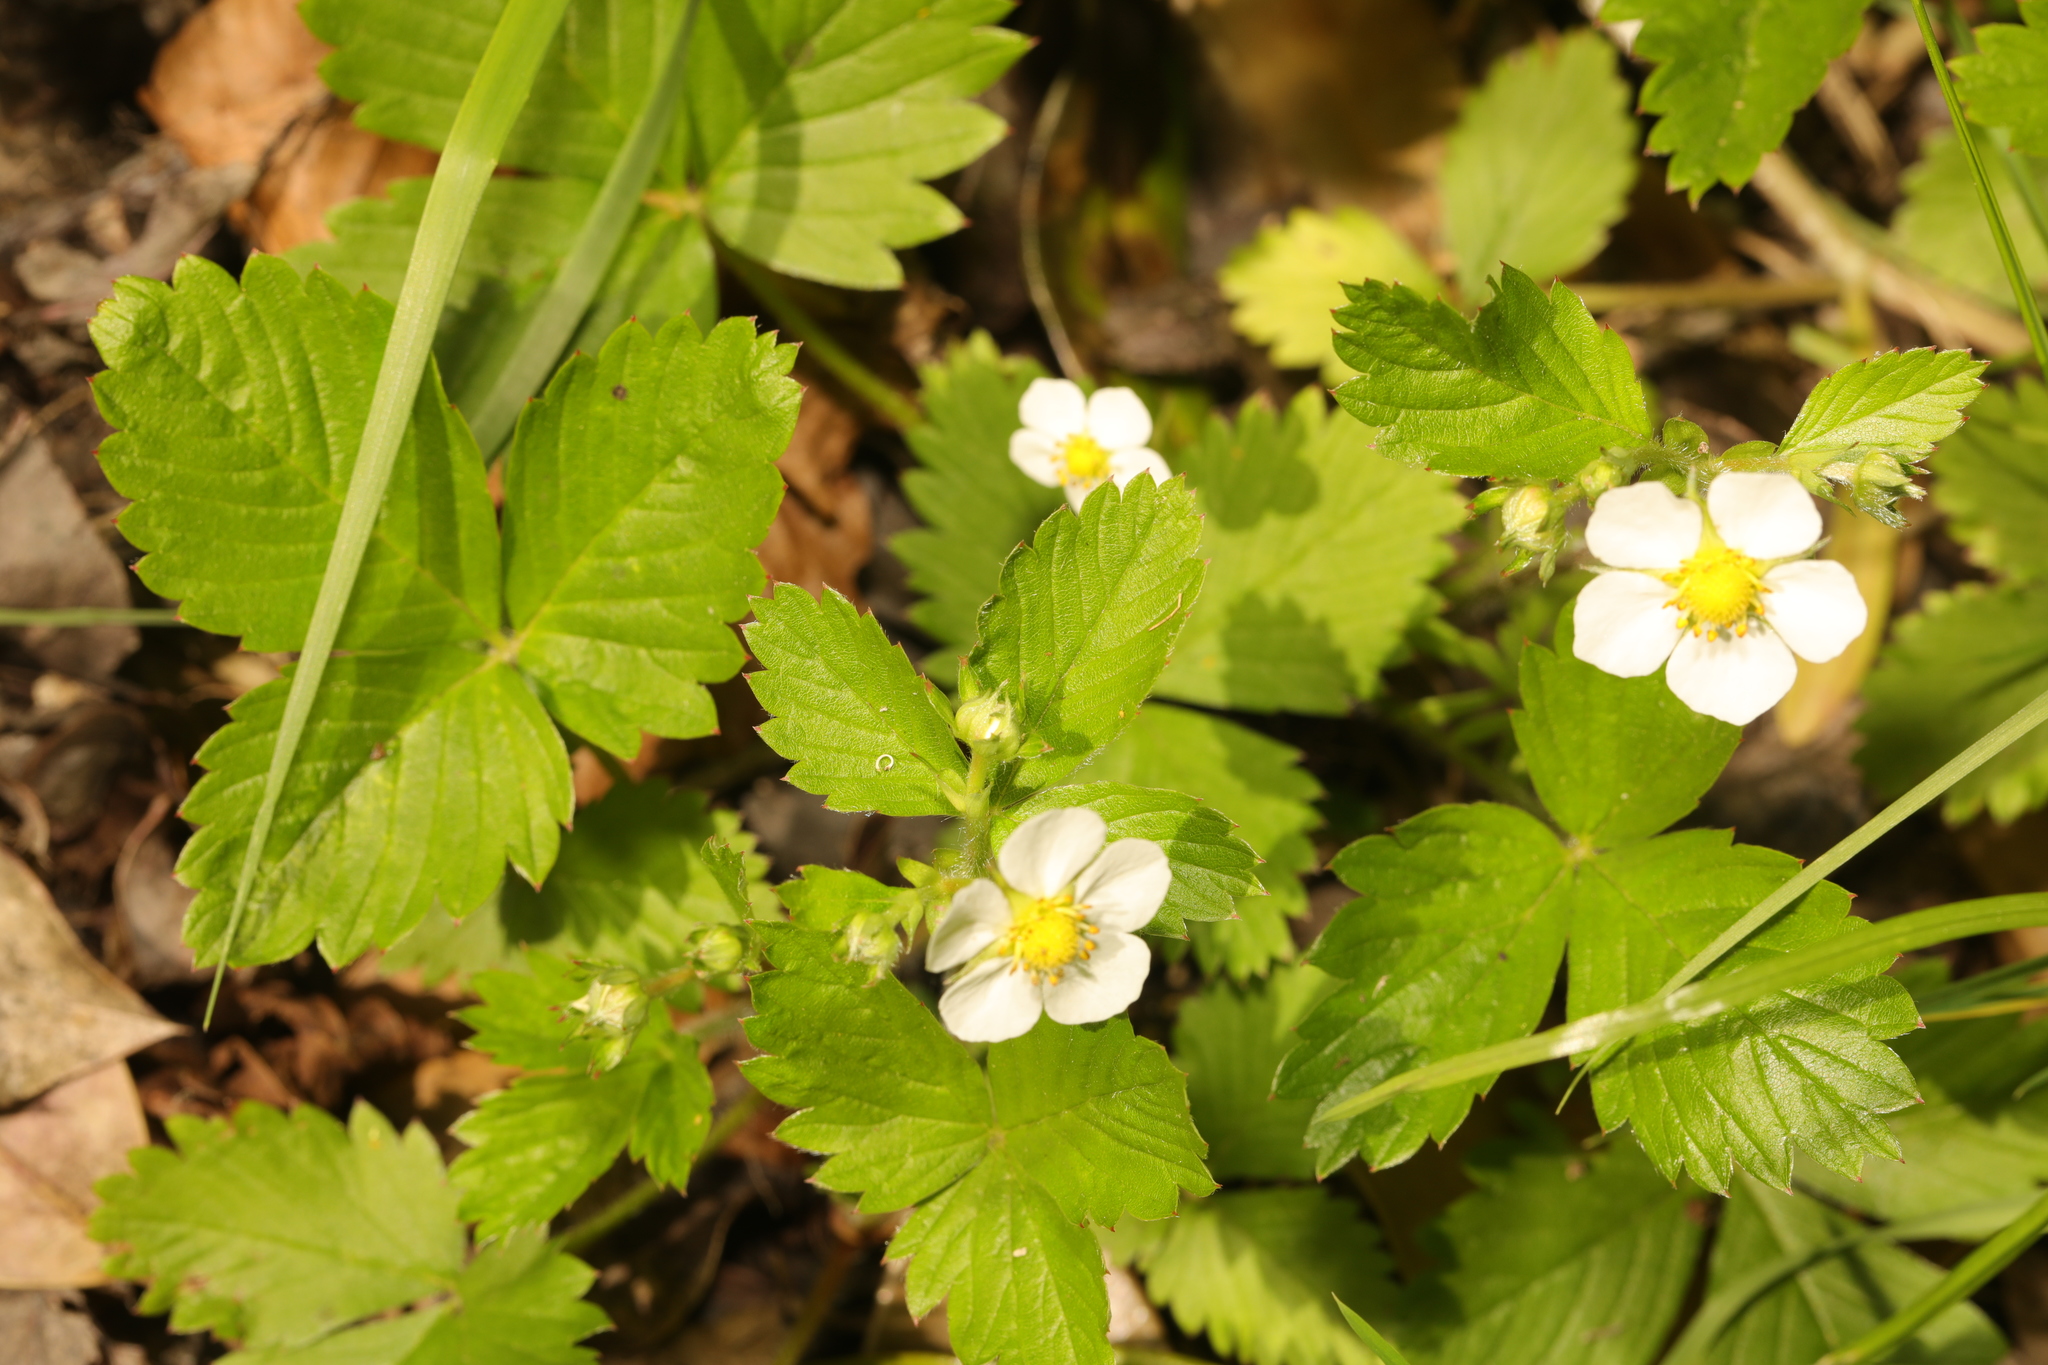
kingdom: Plantae
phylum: Tracheophyta
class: Magnoliopsida
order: Rosales
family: Rosaceae
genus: Fragaria
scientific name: Fragaria vesca
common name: Wild strawberry
